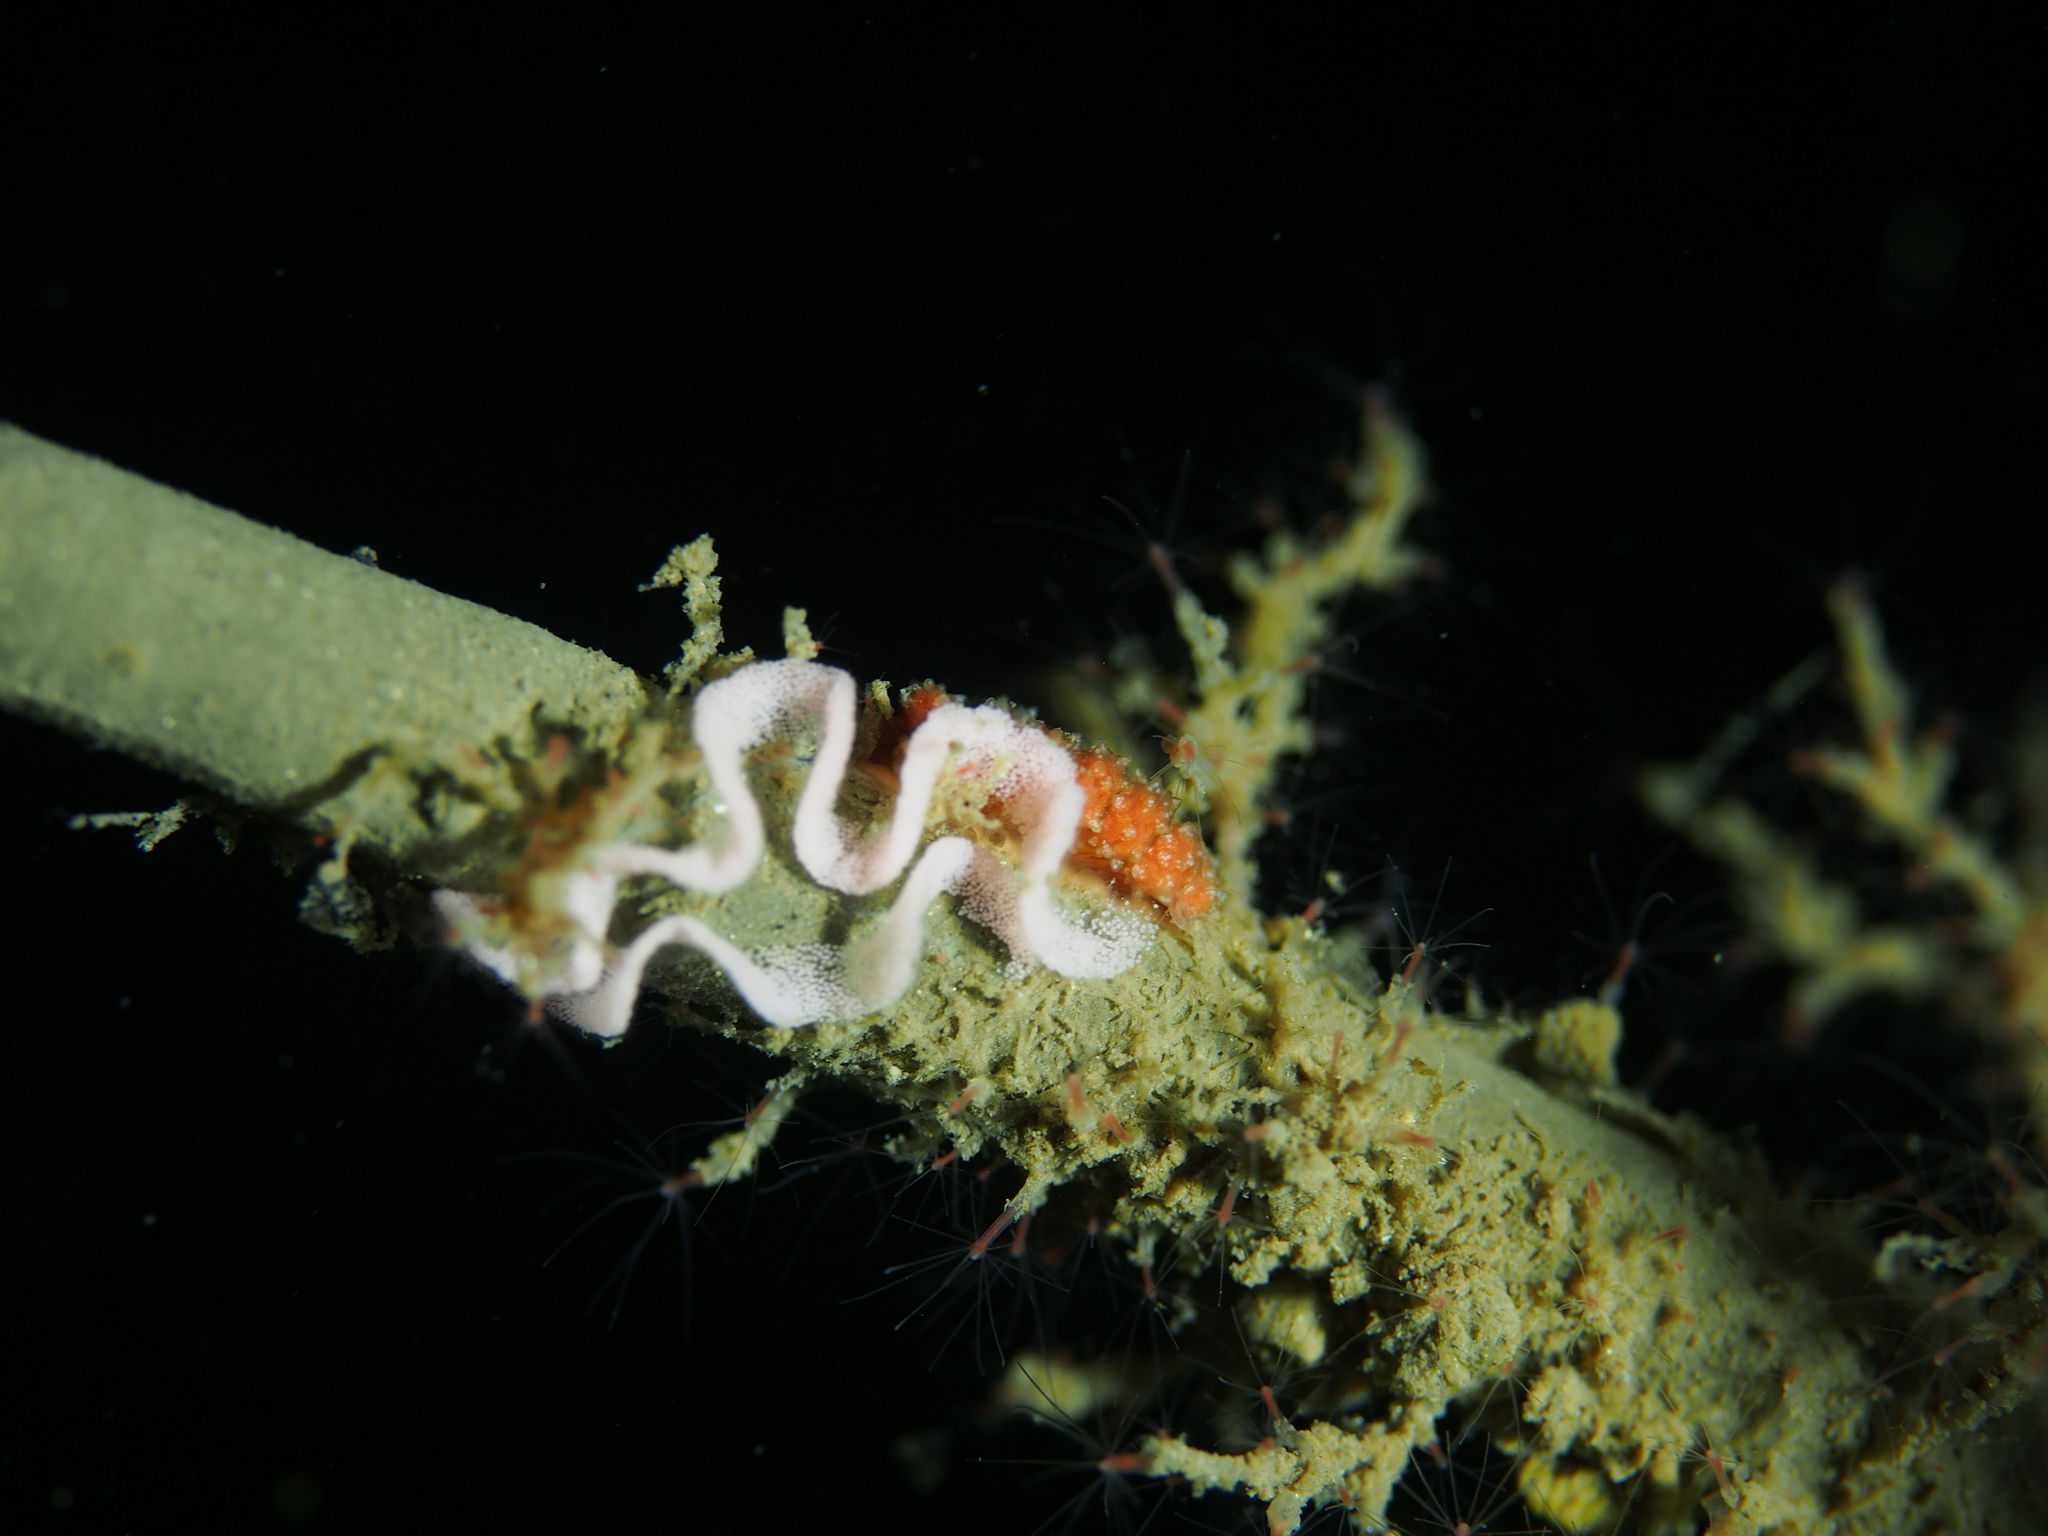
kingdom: Animalia
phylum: Mollusca
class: Gastropoda
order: Nudibranchia
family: Dotidae
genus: Doto
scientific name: Doto fragilis
